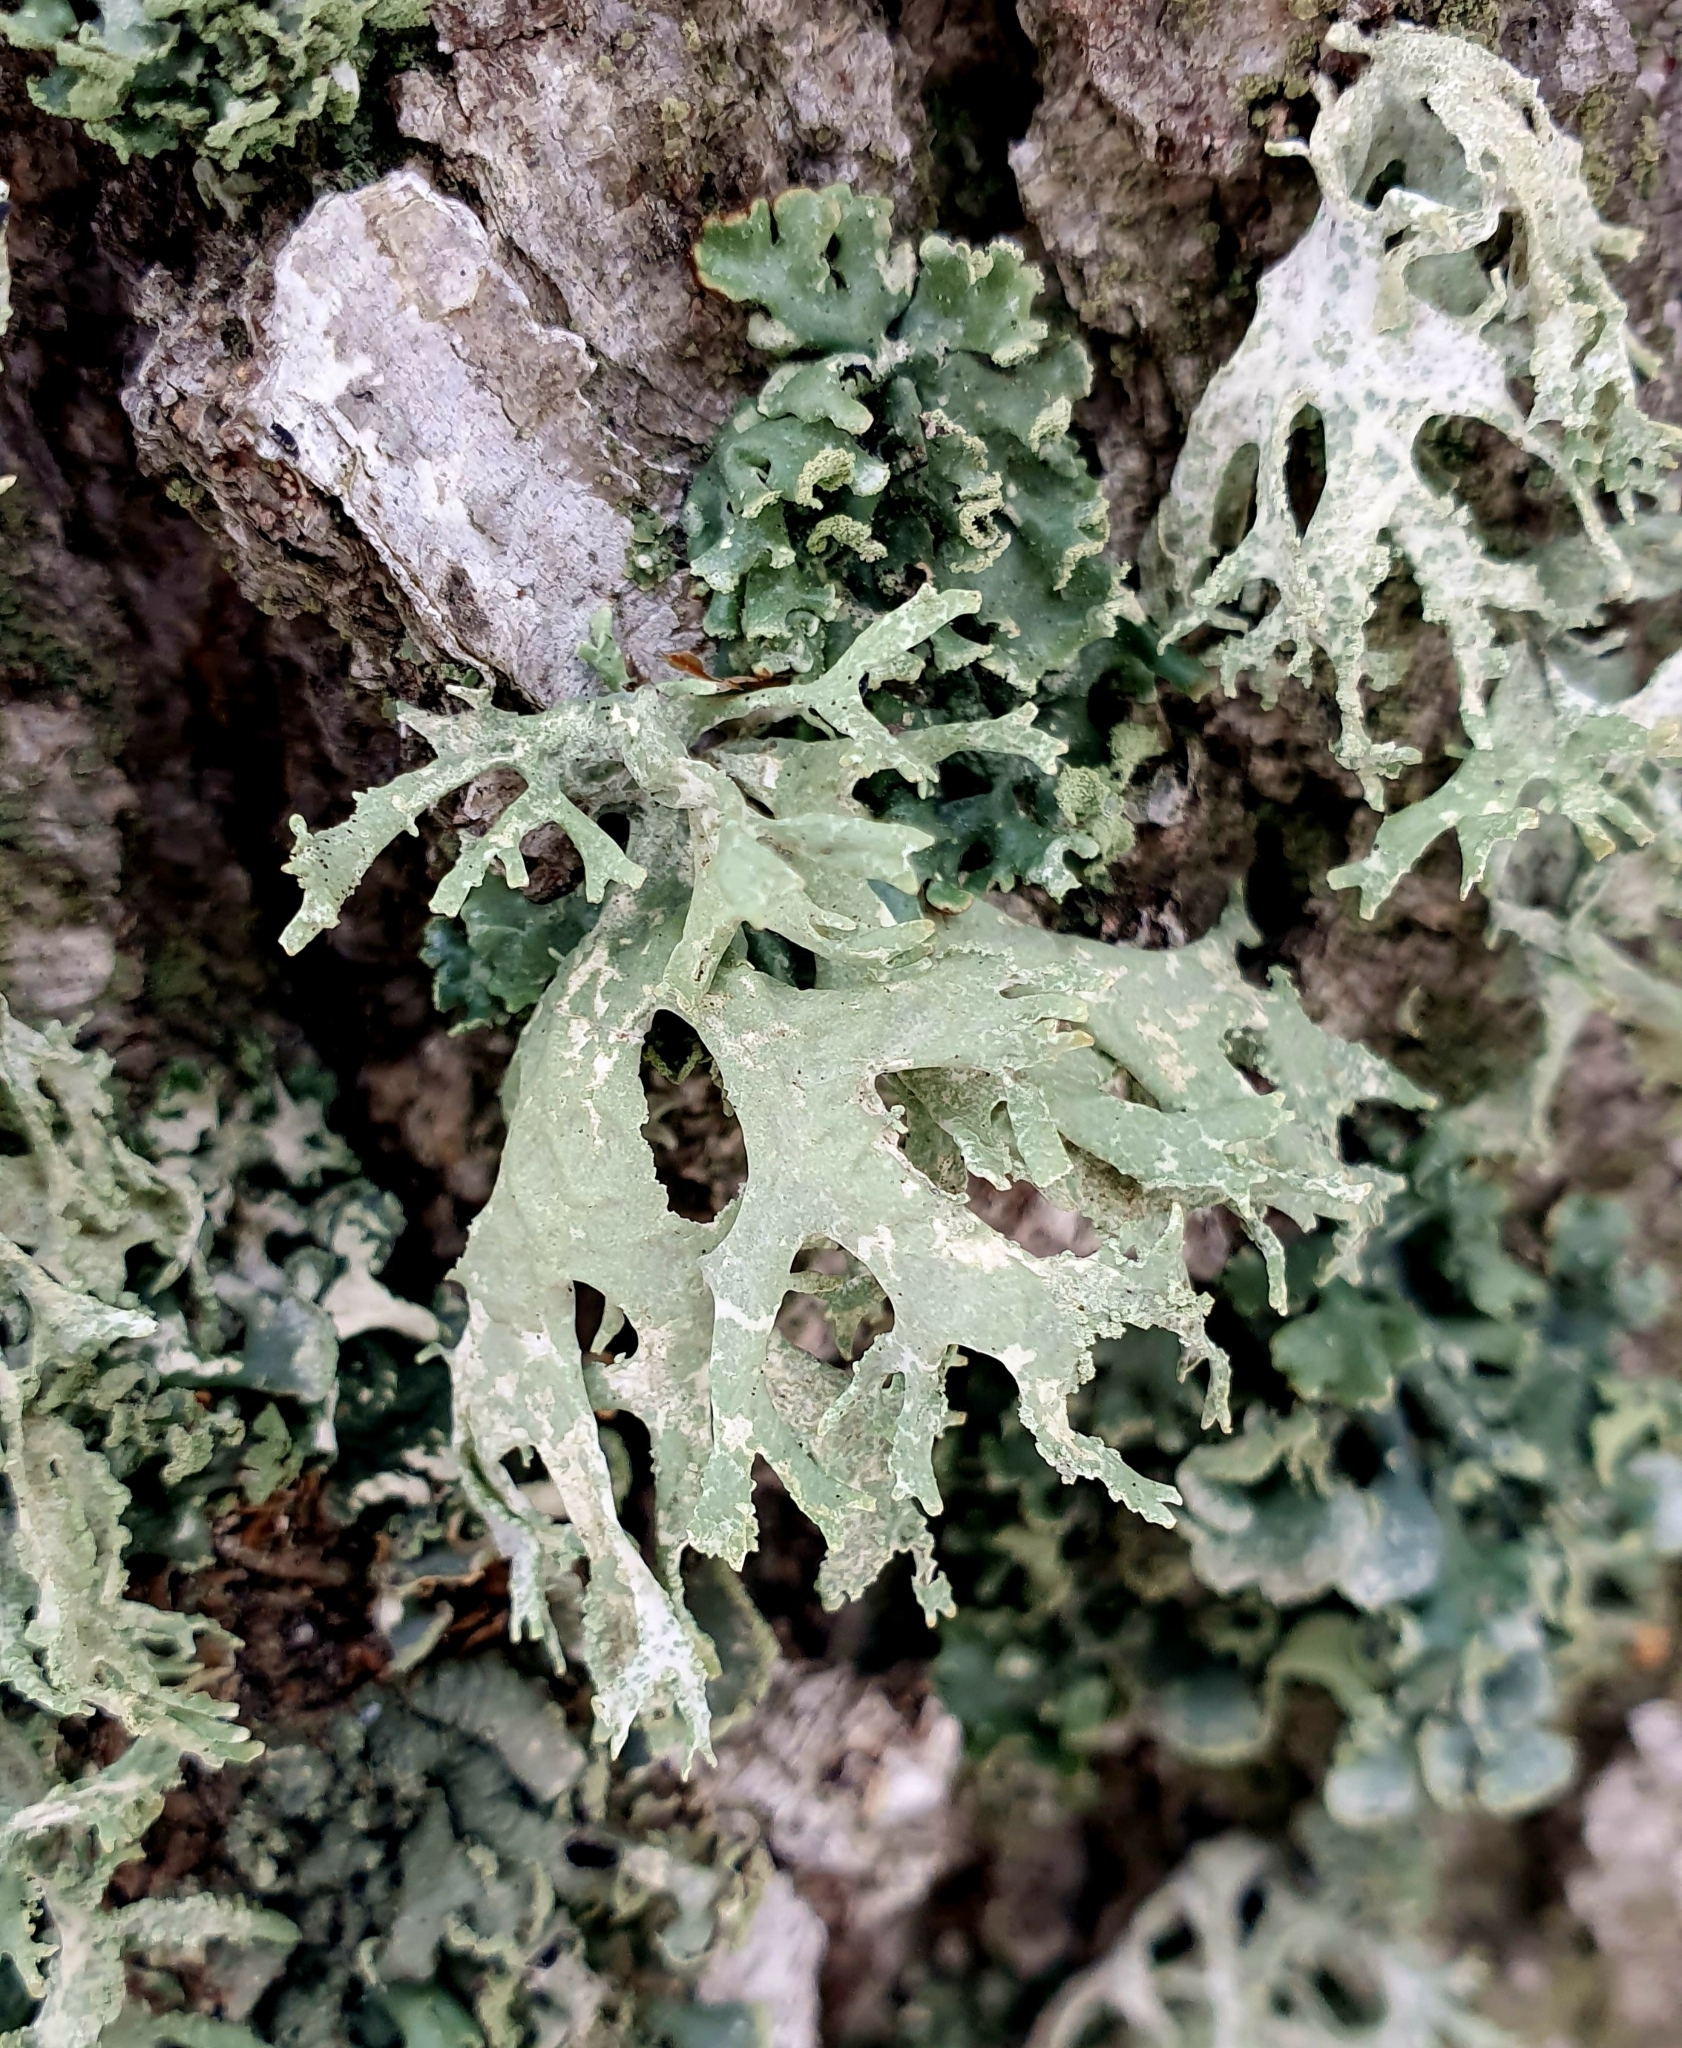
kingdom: Fungi
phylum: Ascomycota
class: Lecanoromycetes
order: Lecanorales
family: Parmeliaceae
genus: Evernia
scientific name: Evernia prunastri
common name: Oak moss
